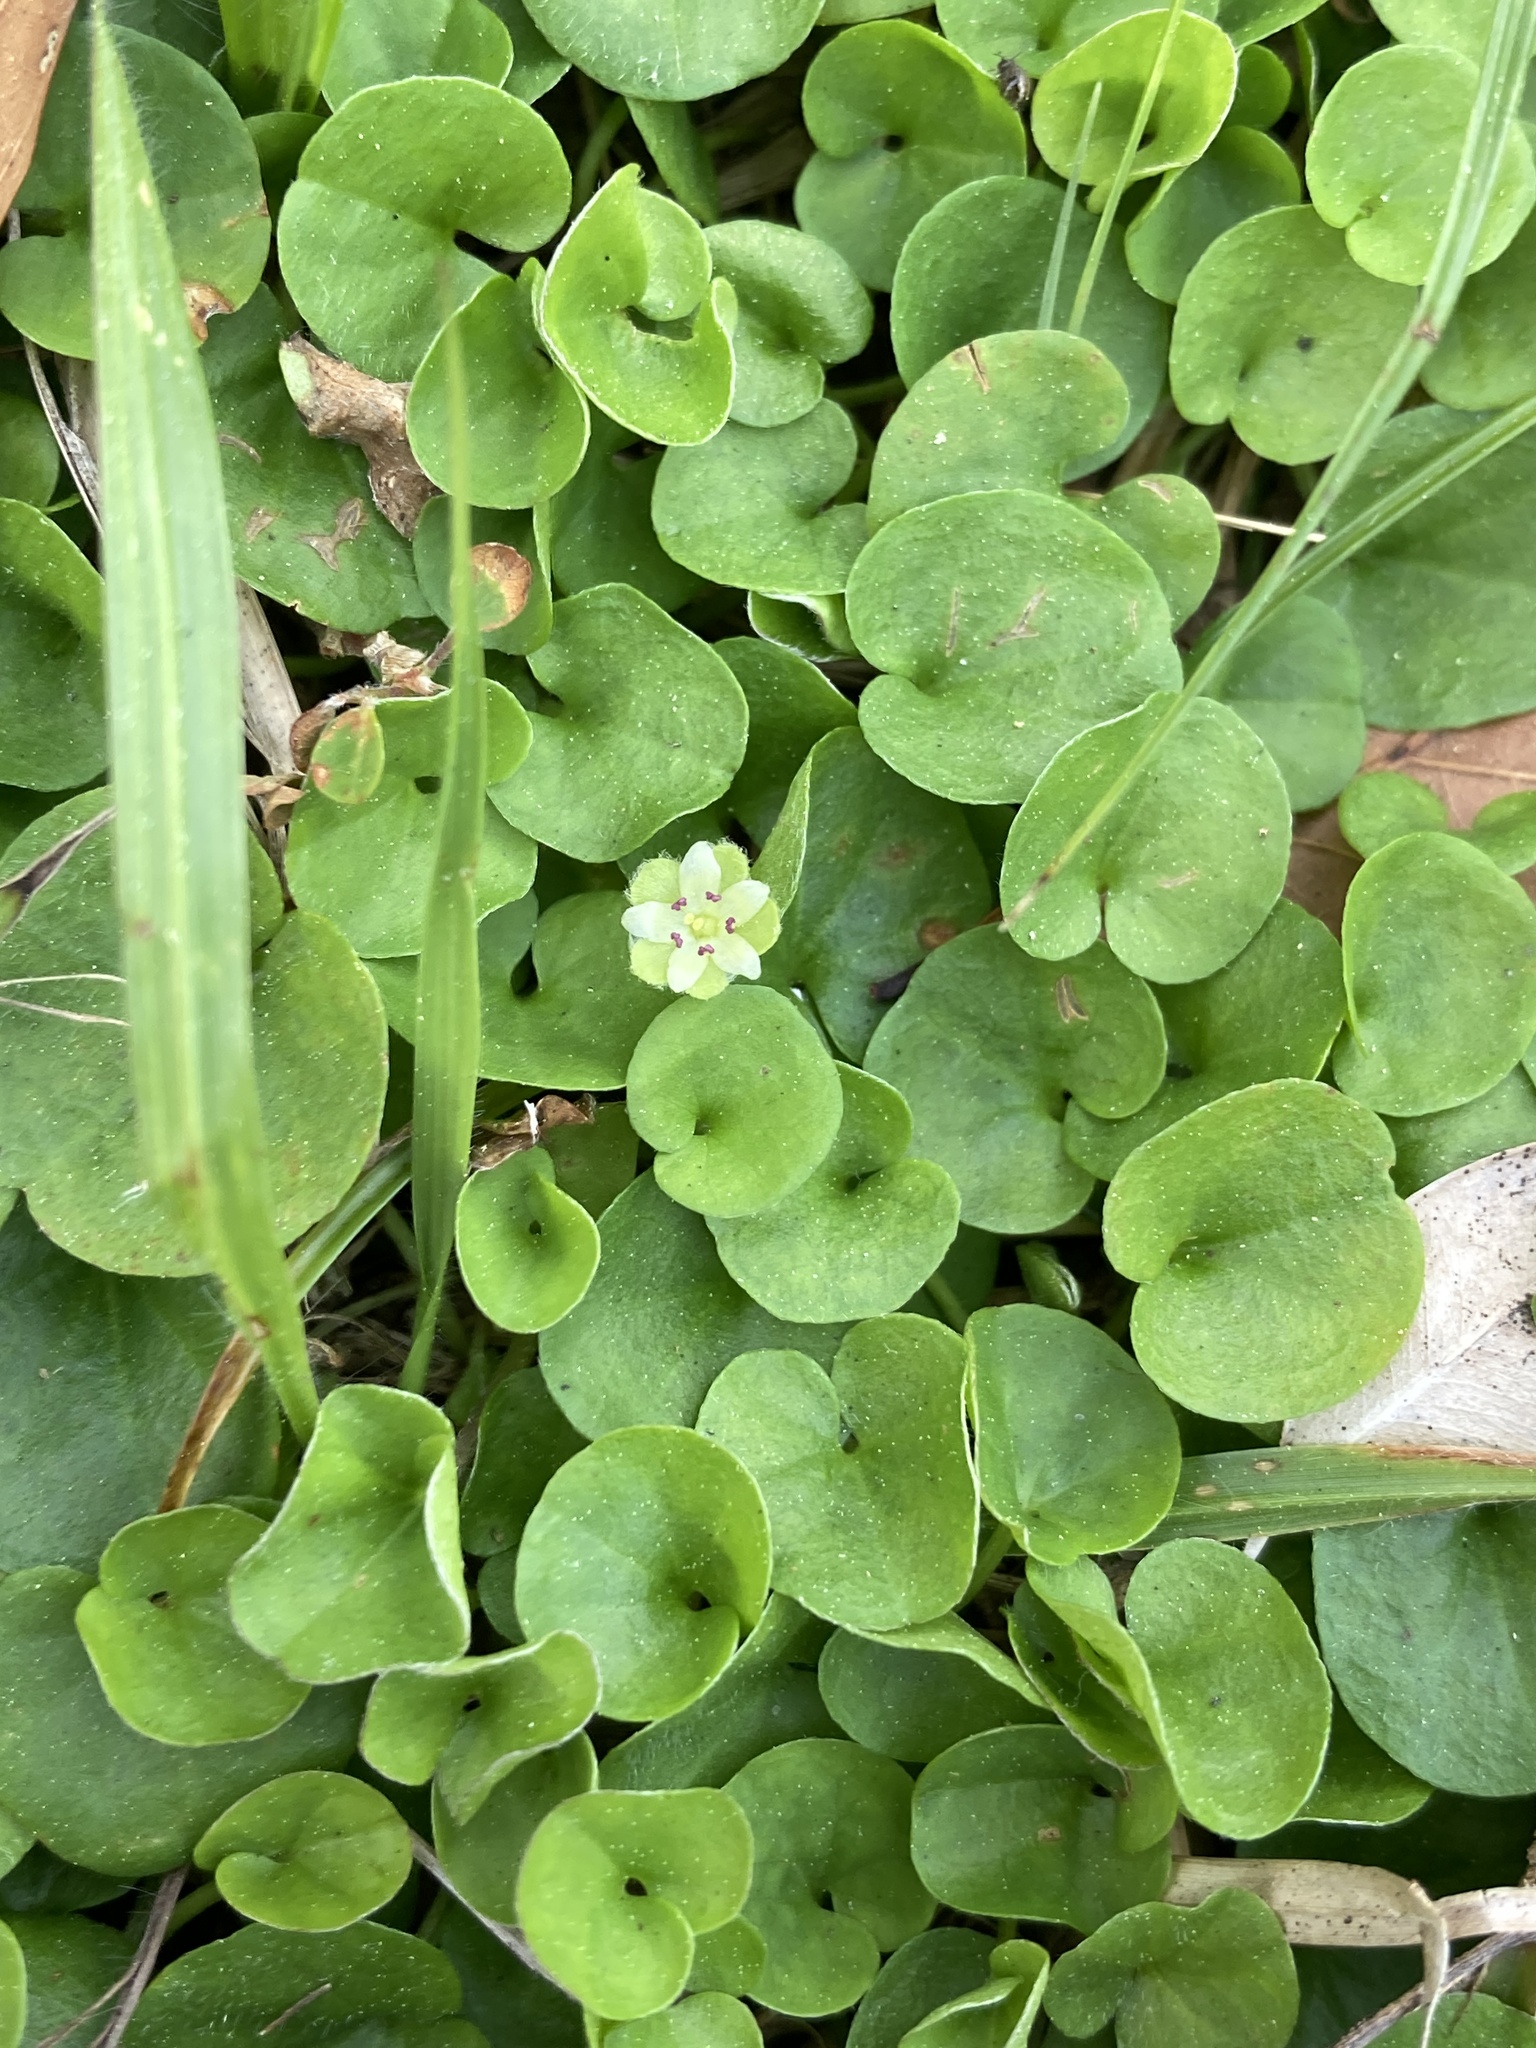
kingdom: Plantae
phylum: Tracheophyta
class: Magnoliopsida
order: Solanales
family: Convolvulaceae
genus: Dichondra
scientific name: Dichondra carolinensis
